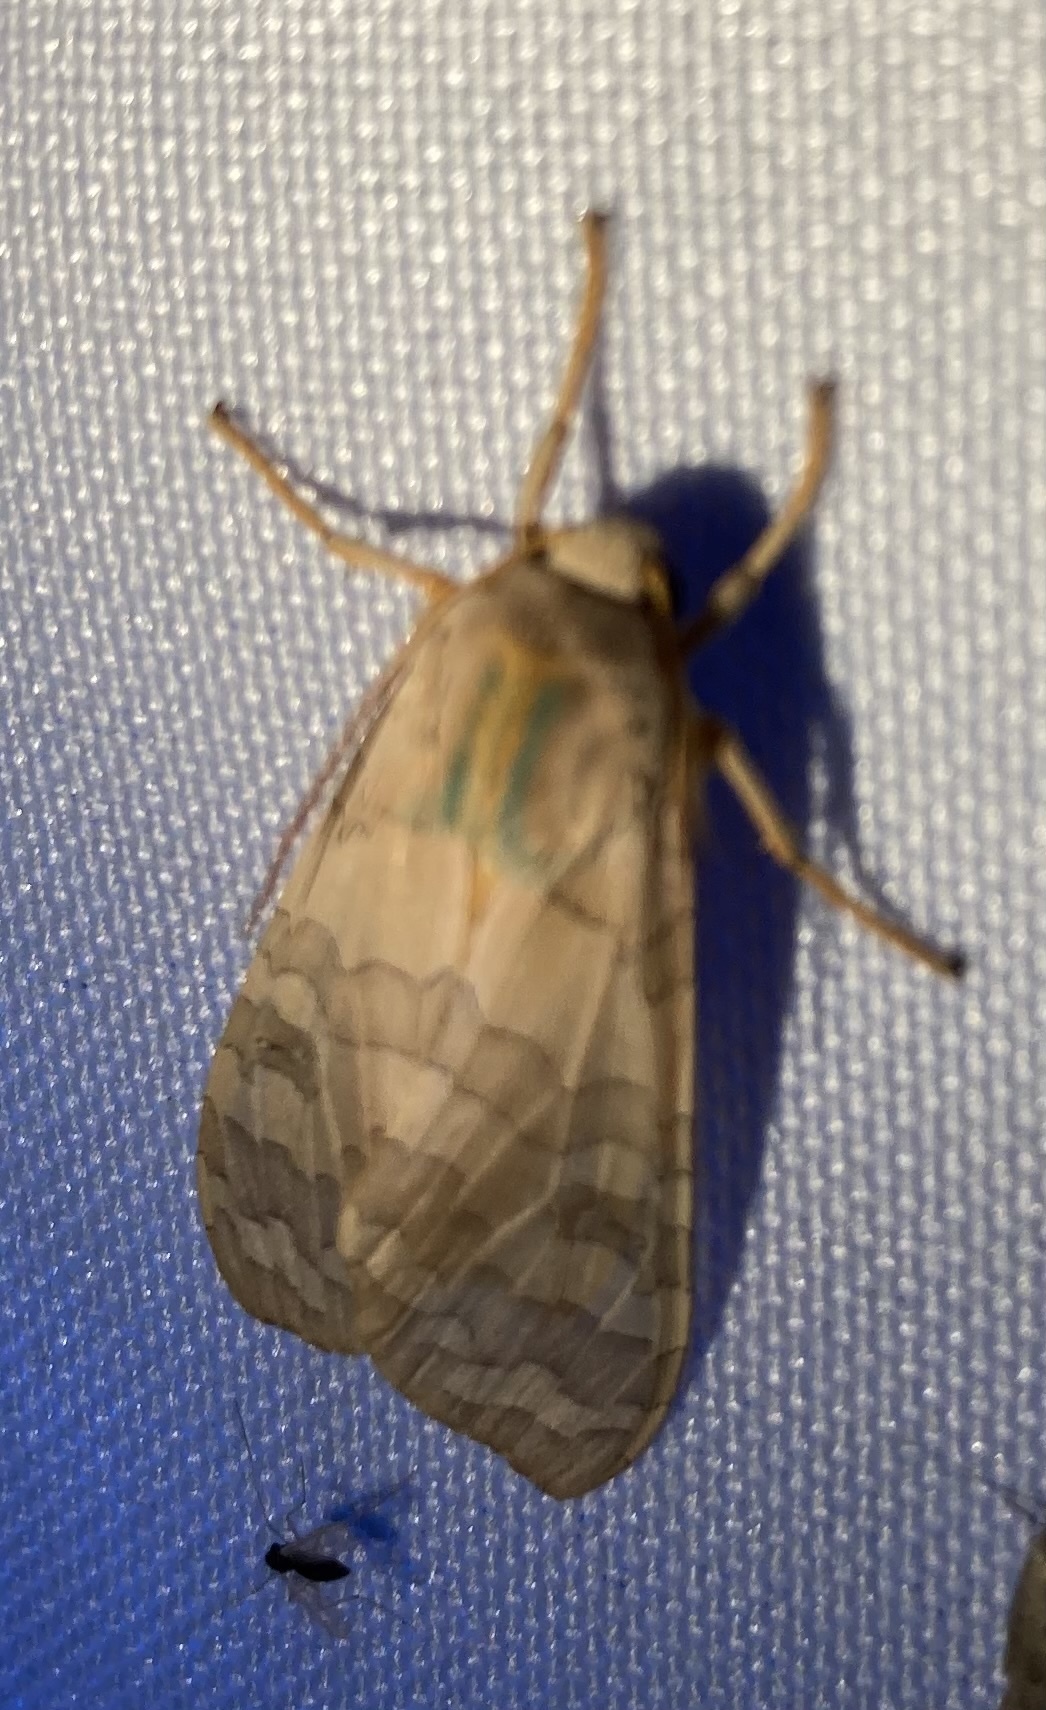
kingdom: Animalia
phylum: Arthropoda
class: Insecta
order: Lepidoptera
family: Erebidae
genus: Halysidota
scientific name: Halysidota
